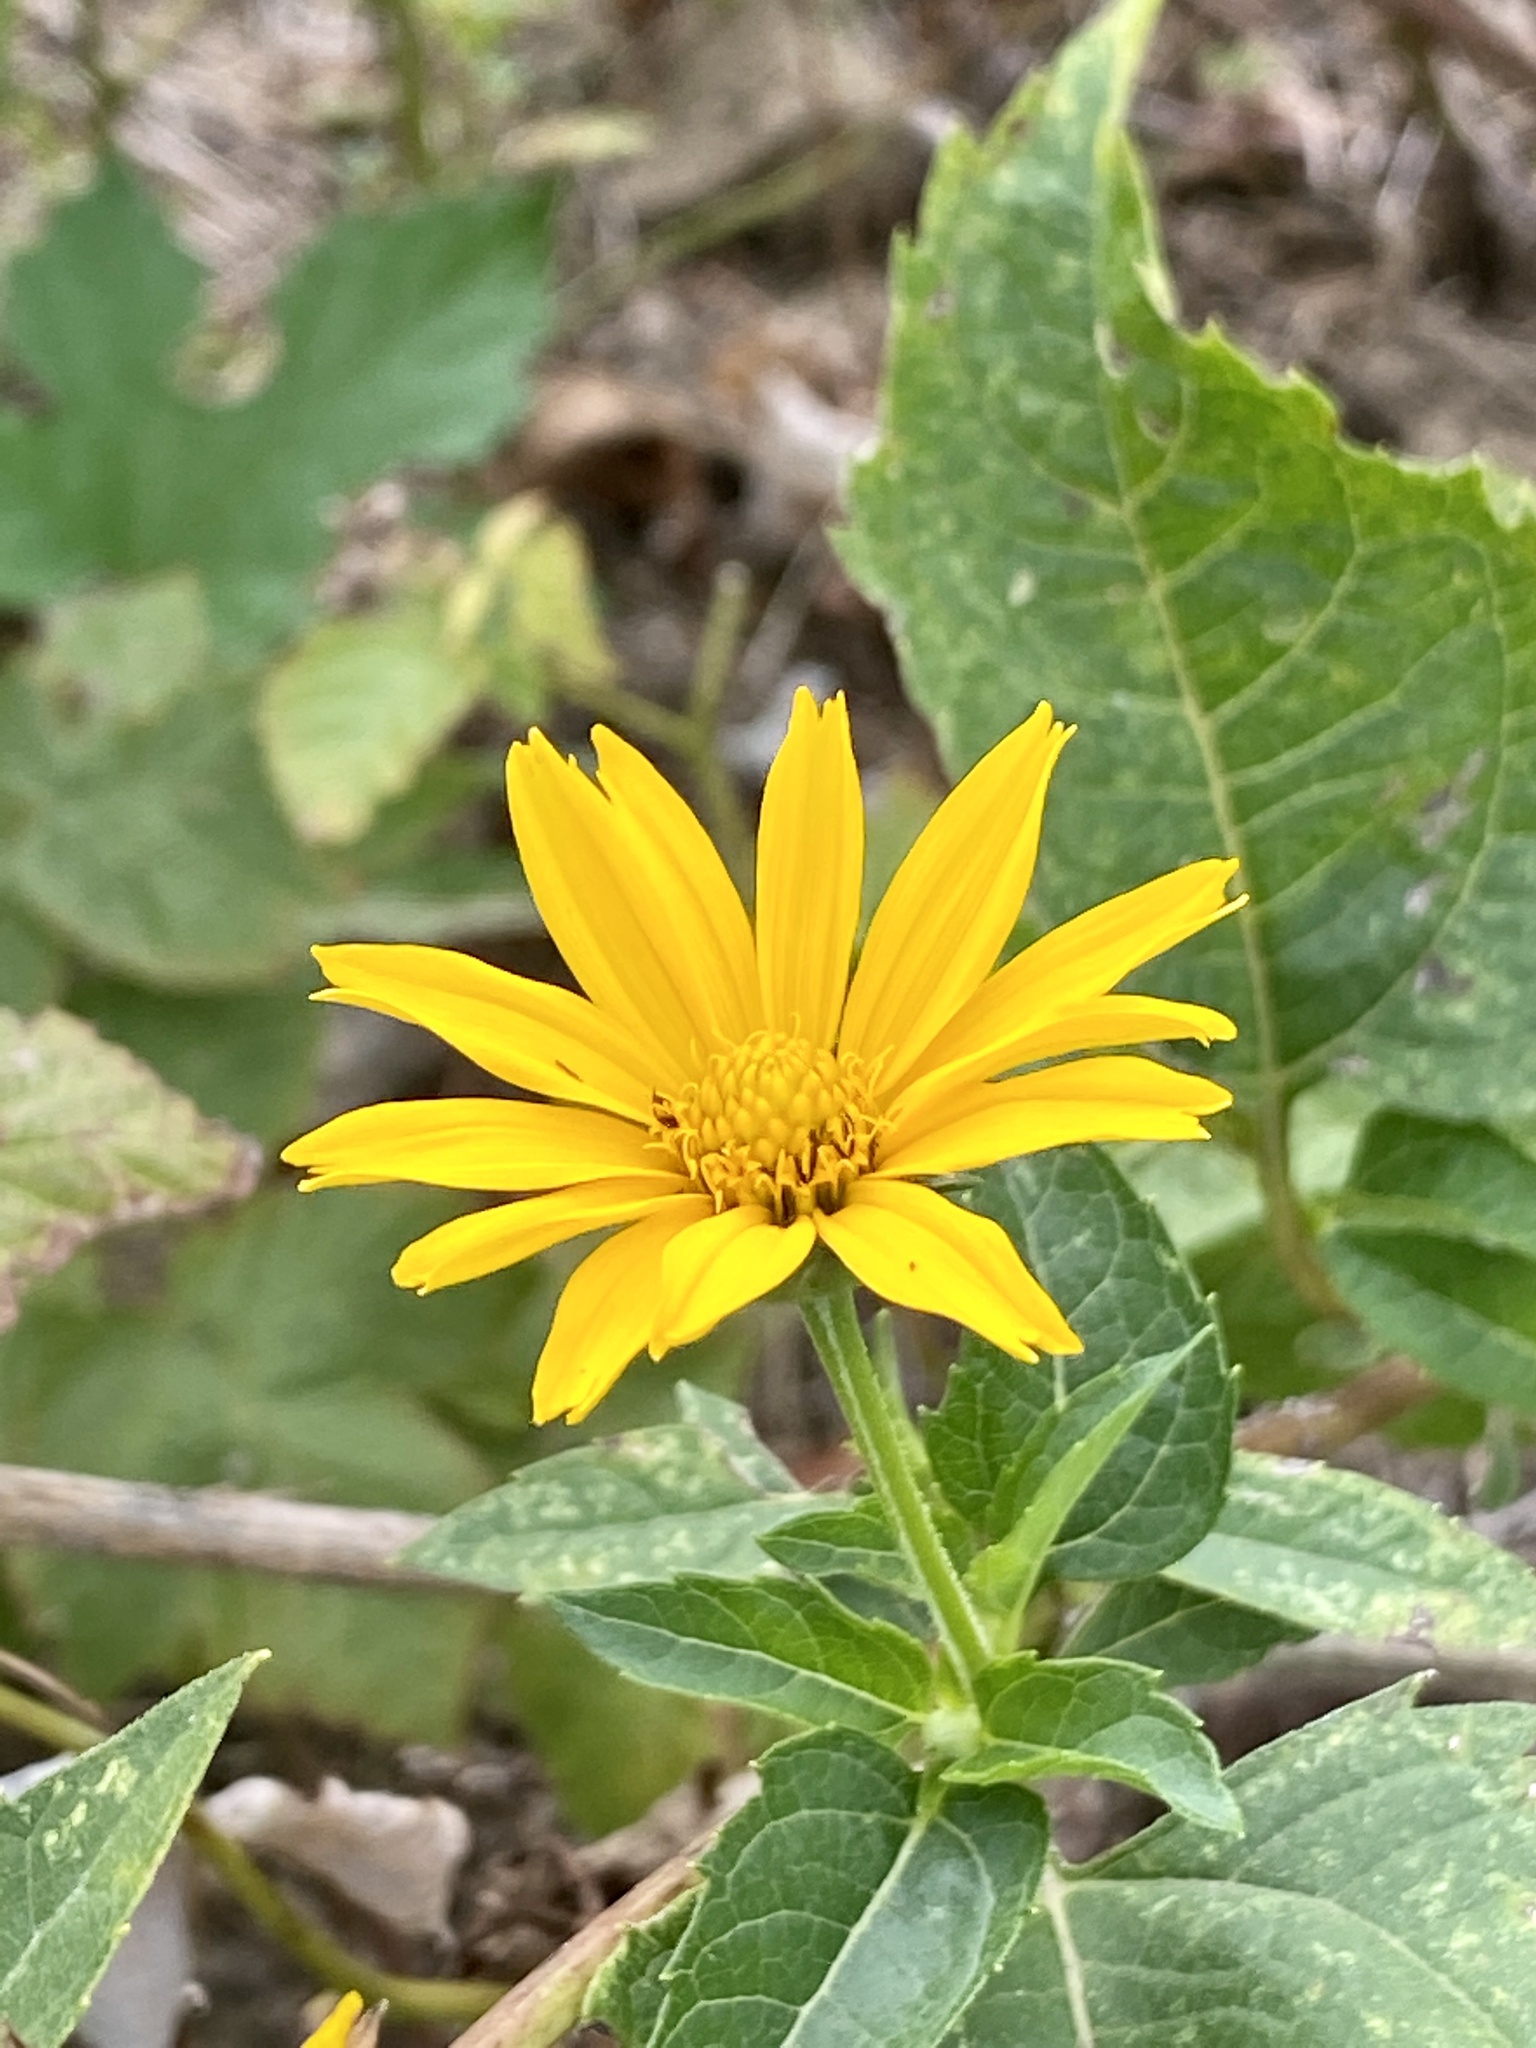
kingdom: Plantae
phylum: Tracheophyta
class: Magnoliopsida
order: Asterales
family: Asteraceae
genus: Heliopsis
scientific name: Heliopsis helianthoides
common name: False sunflower
